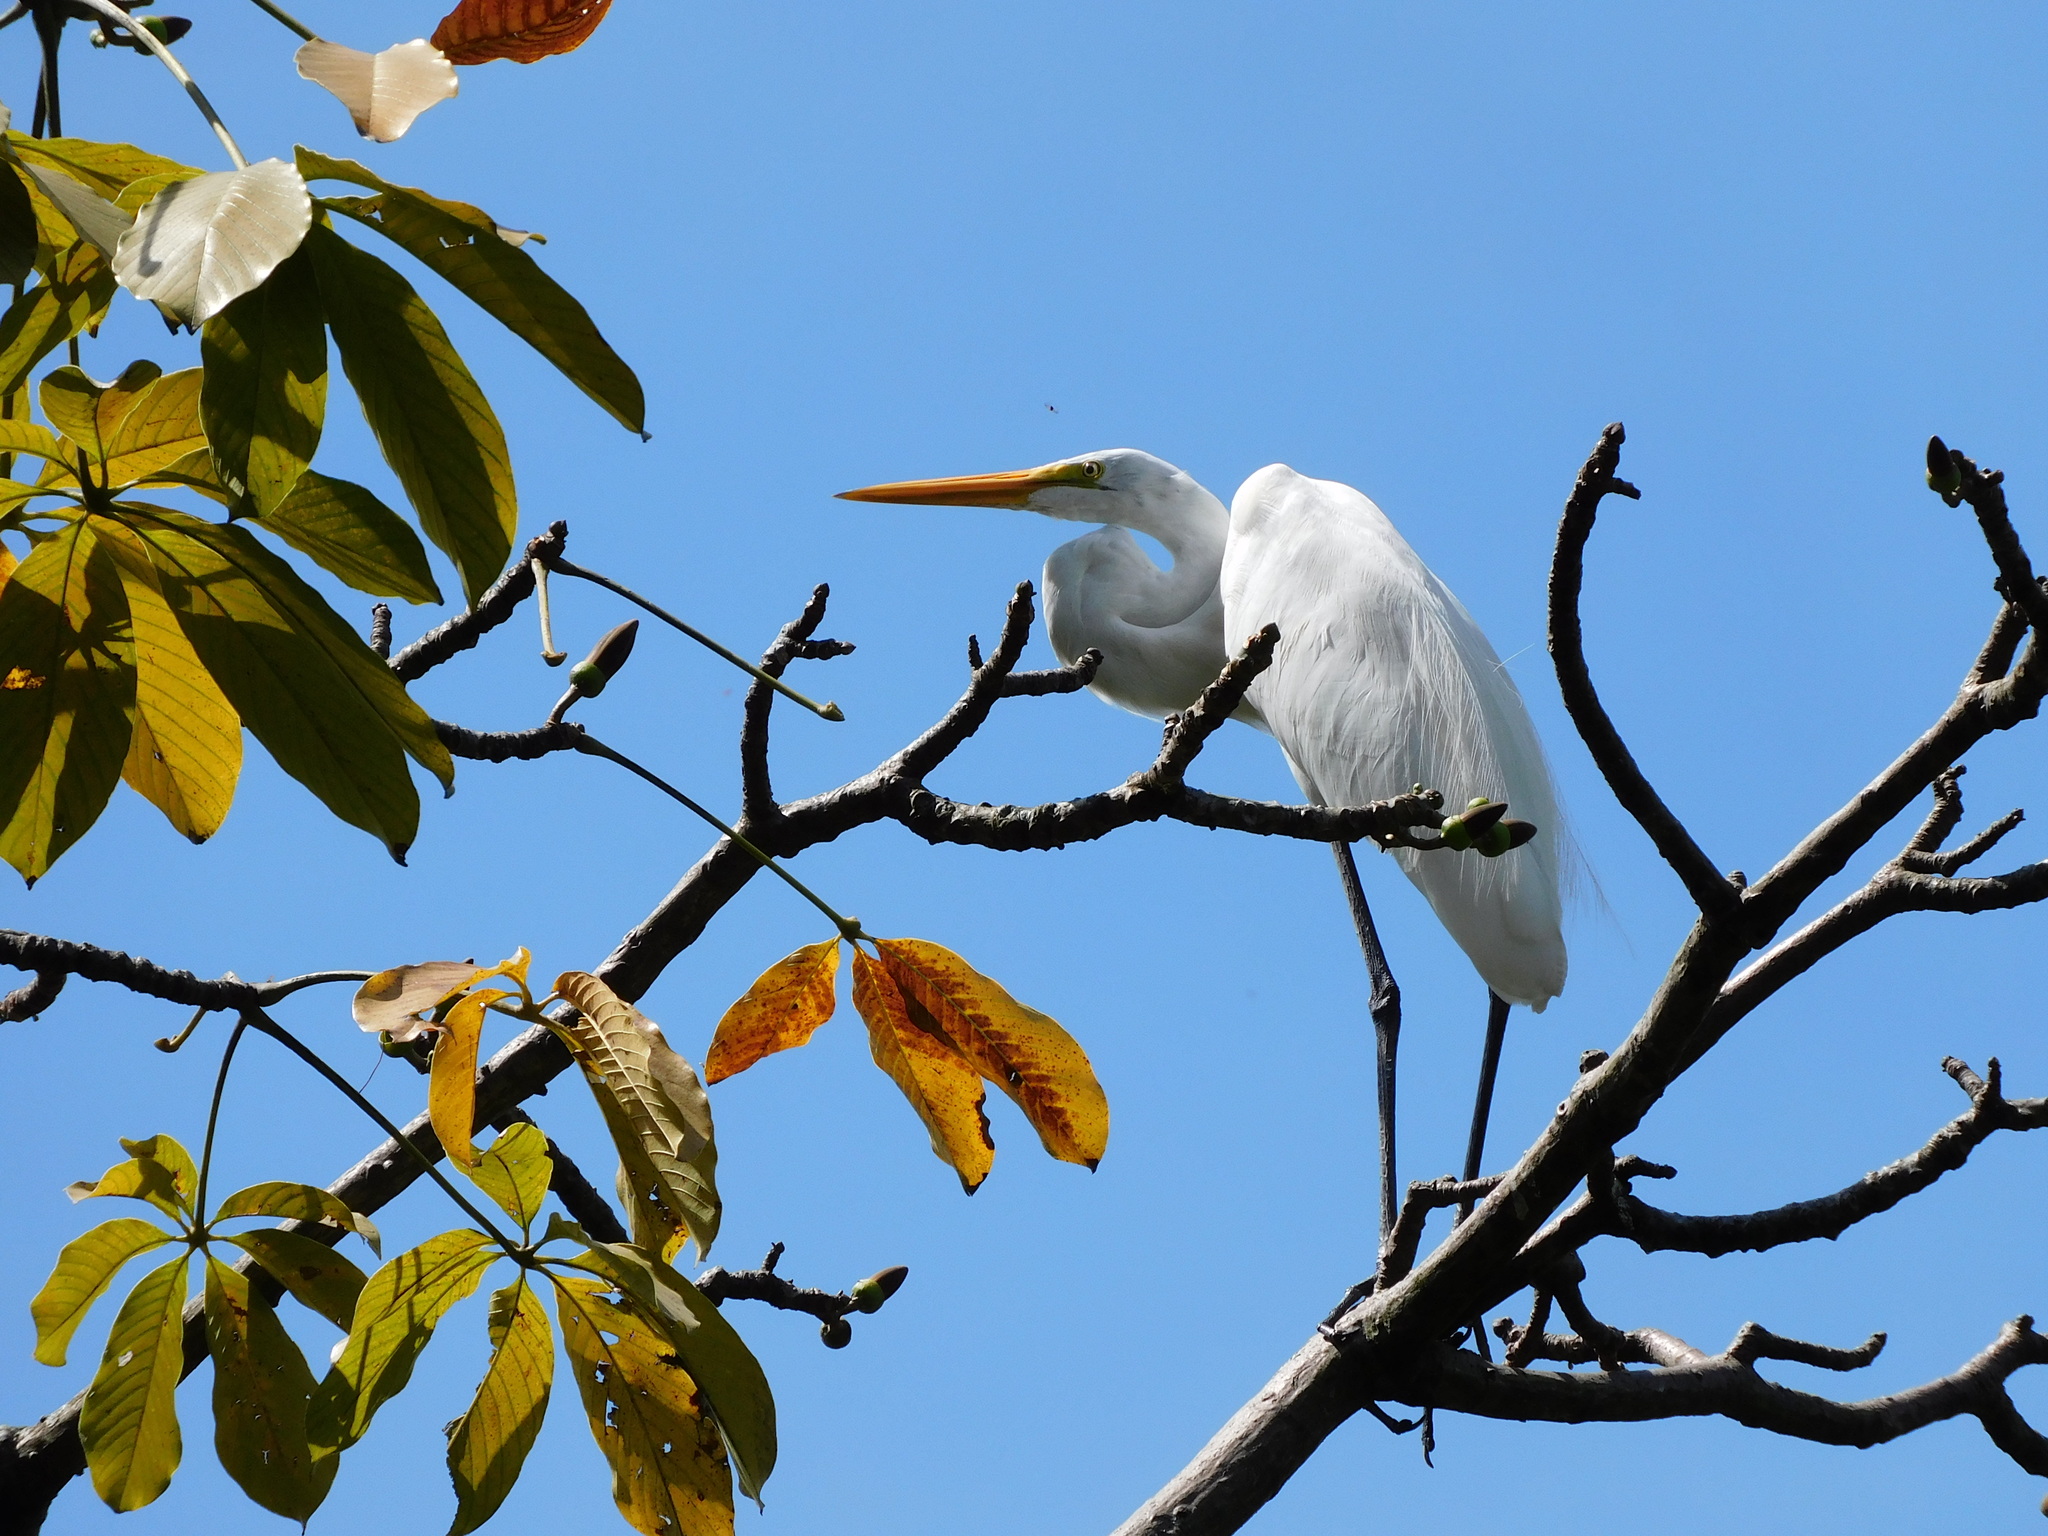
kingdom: Animalia
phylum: Chordata
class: Aves
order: Pelecaniformes
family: Ardeidae
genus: Ardea
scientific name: Ardea alba
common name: Great egret
